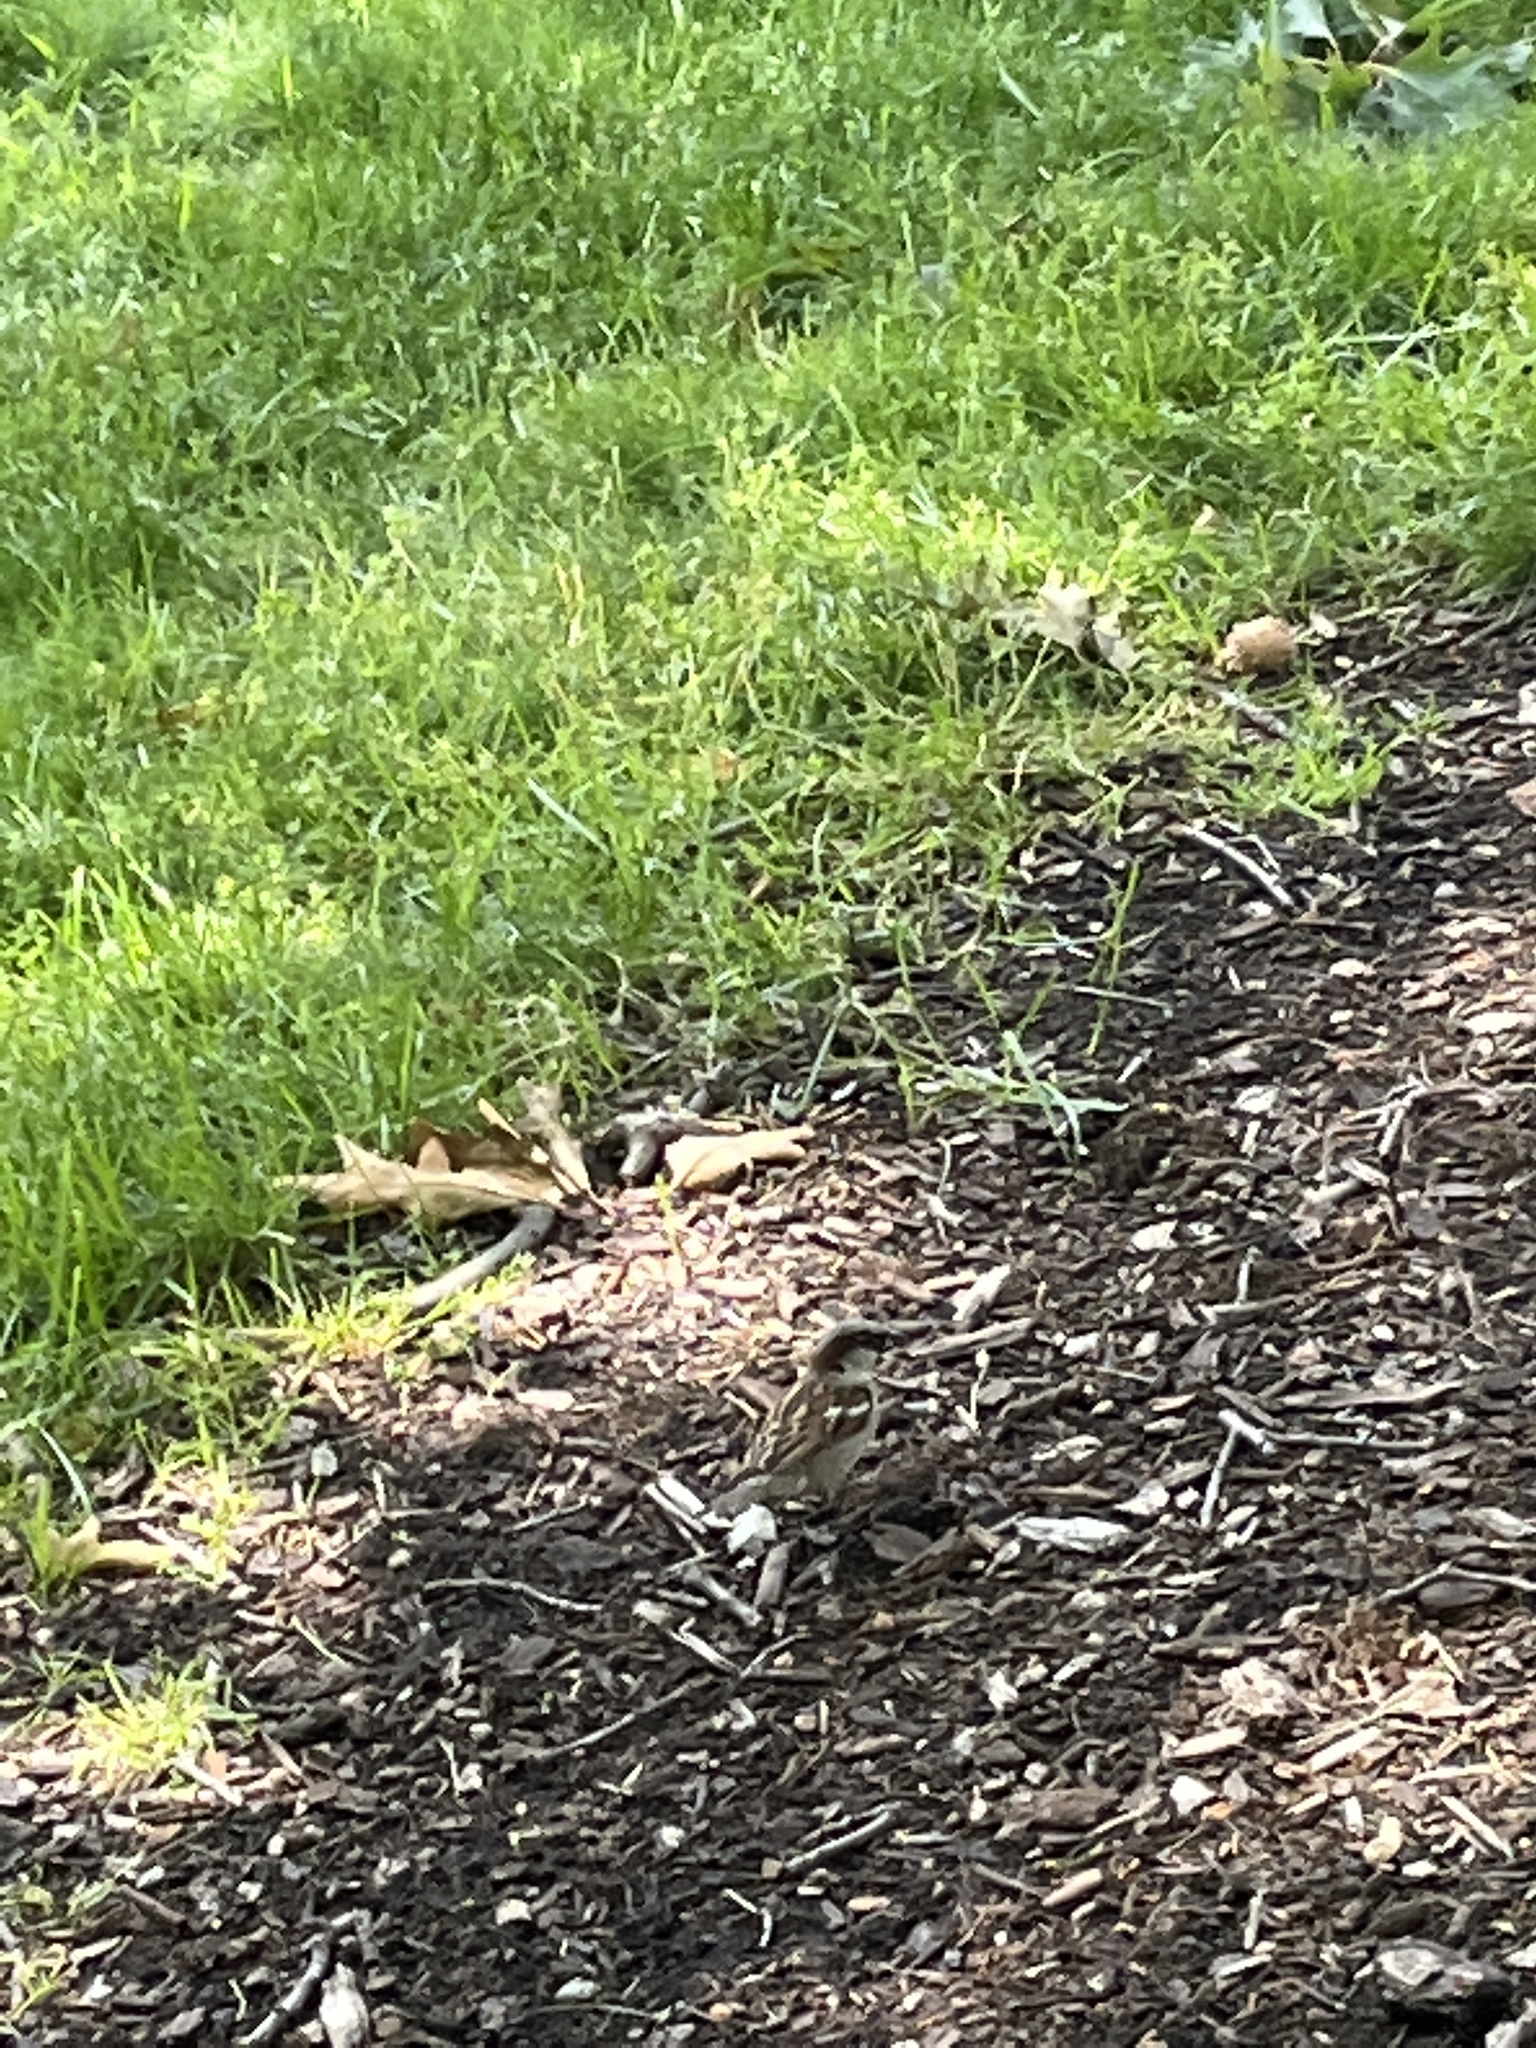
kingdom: Animalia
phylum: Chordata
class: Aves
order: Passeriformes
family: Passeridae
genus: Passer
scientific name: Passer domesticus
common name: House sparrow
